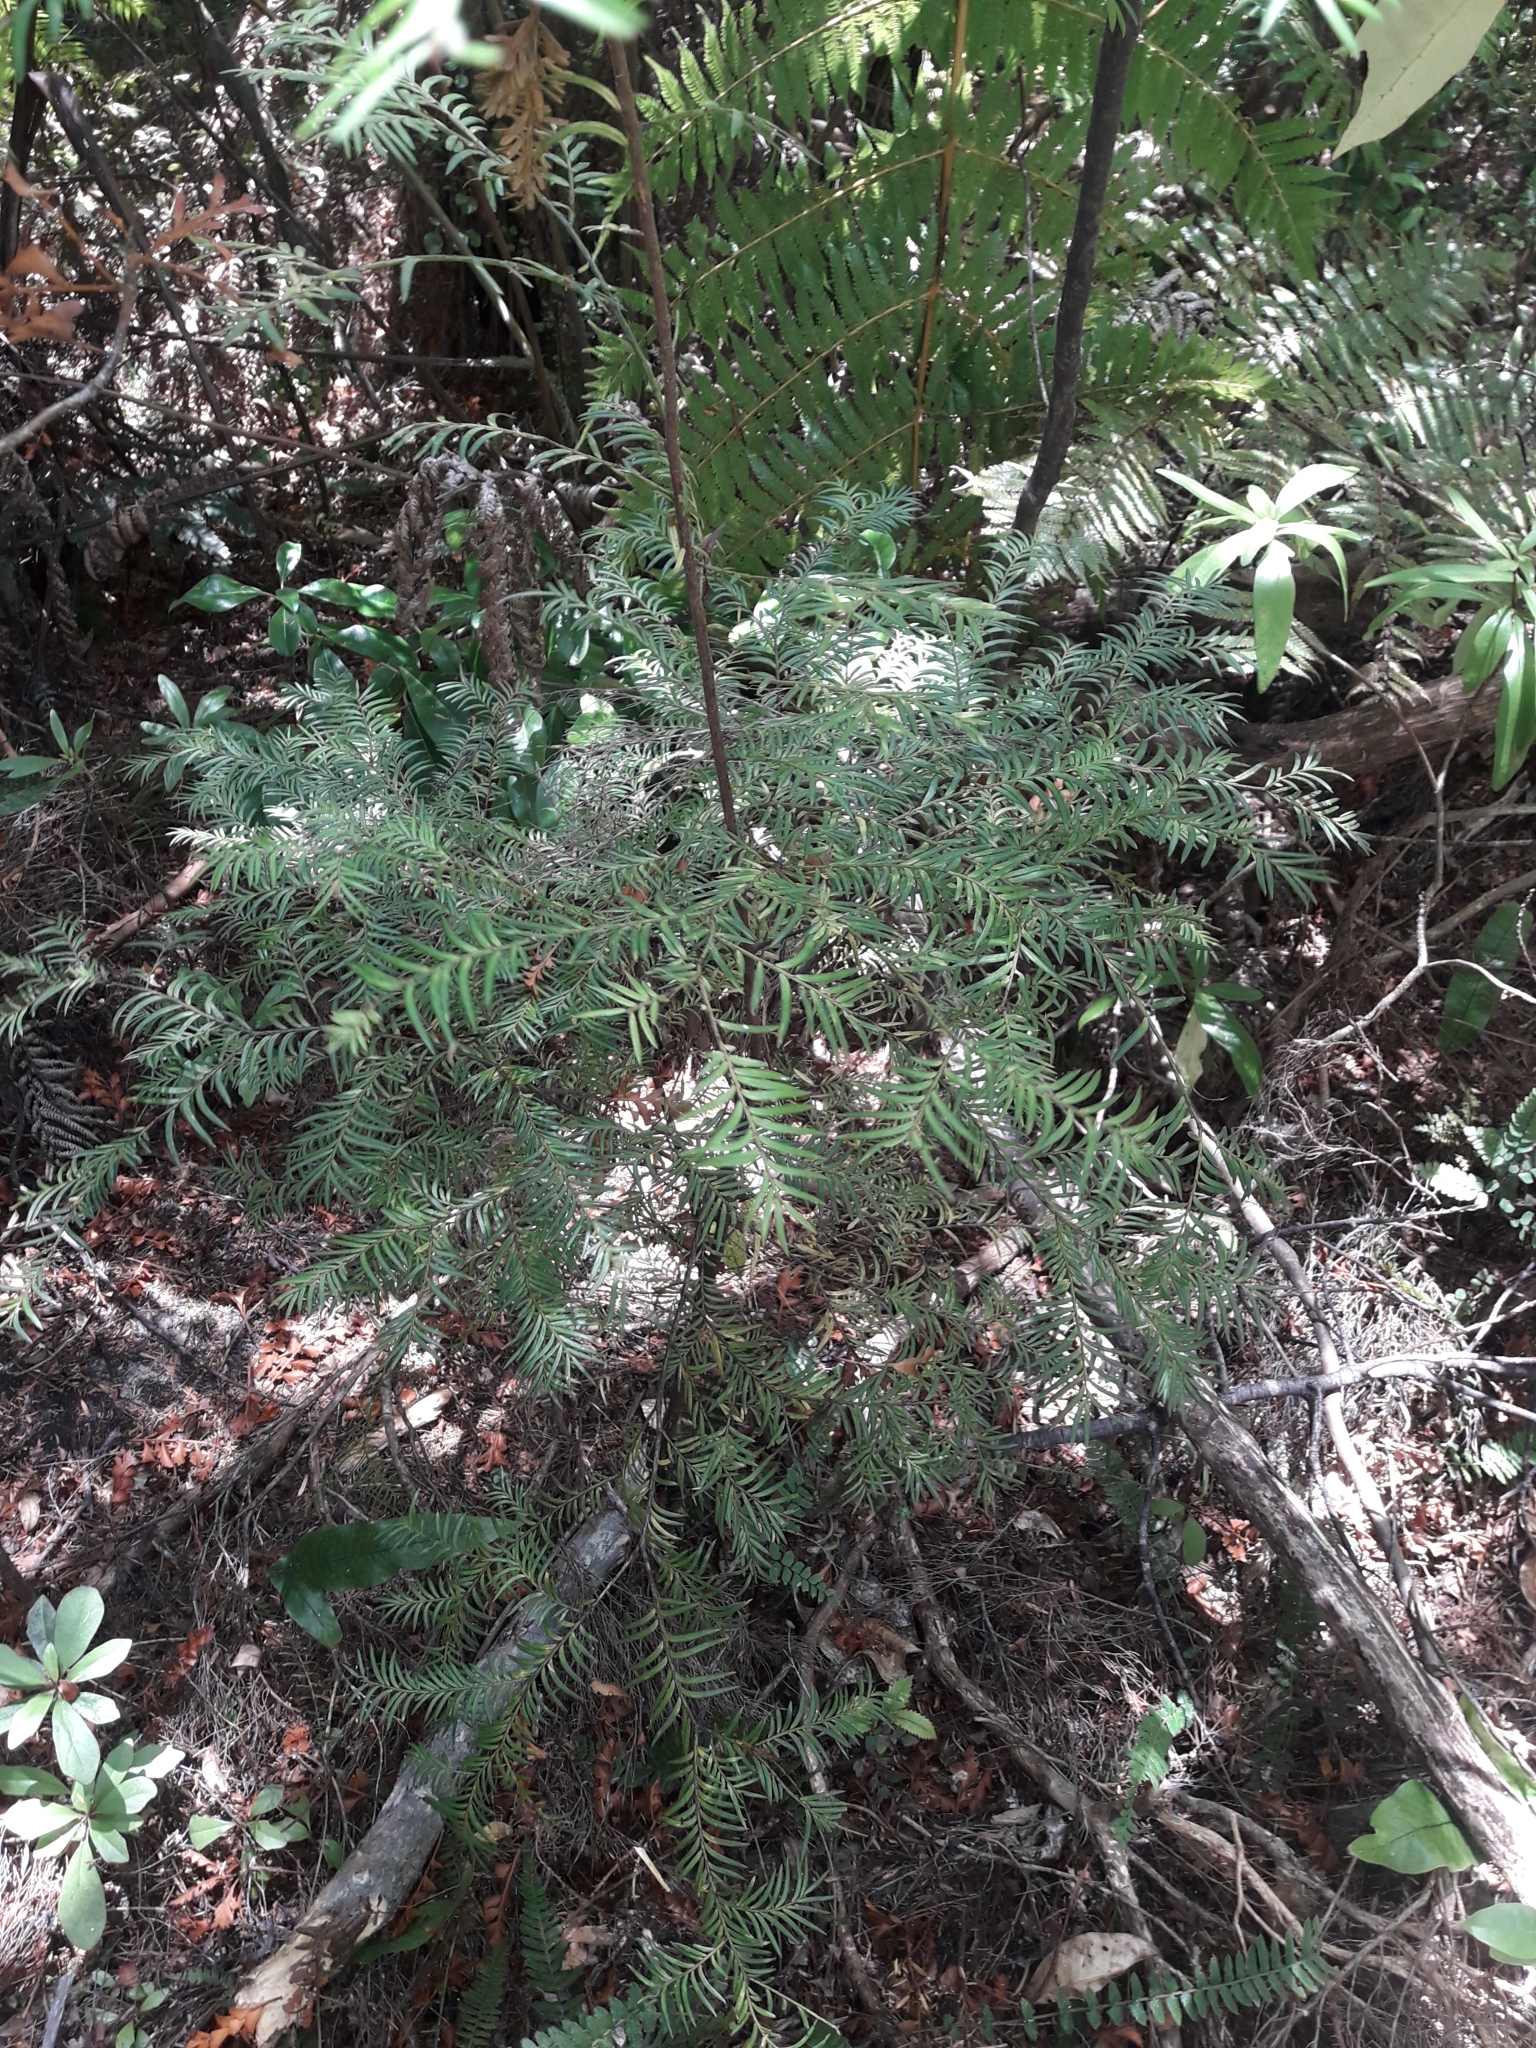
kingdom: Plantae
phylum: Tracheophyta
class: Pinopsida
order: Pinales
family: Podocarpaceae
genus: Prumnopitys
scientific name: Prumnopitys ferruginea
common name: Brown pine
